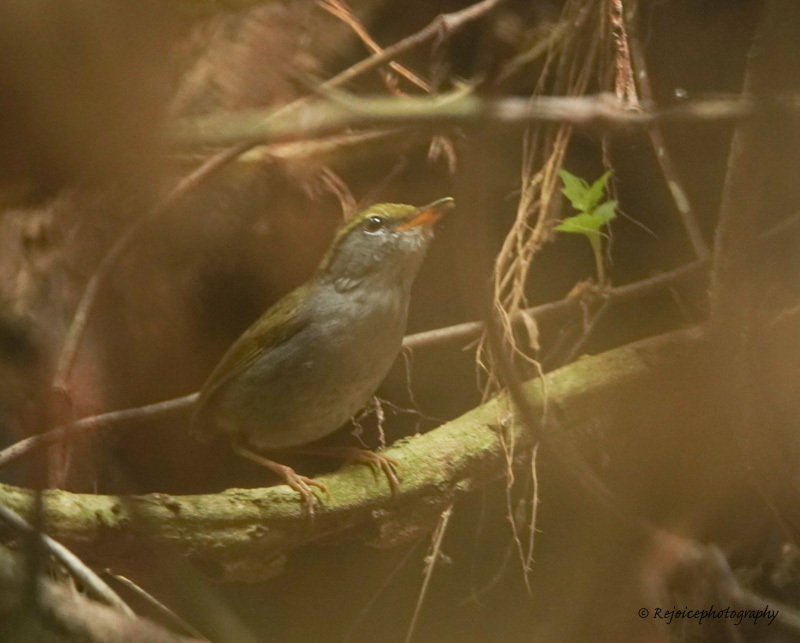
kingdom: Animalia
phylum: Chordata
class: Aves
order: Passeriformes
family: Cettiidae
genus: Tesia
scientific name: Tesia cyaniventer
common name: Grey-bellied tesia
